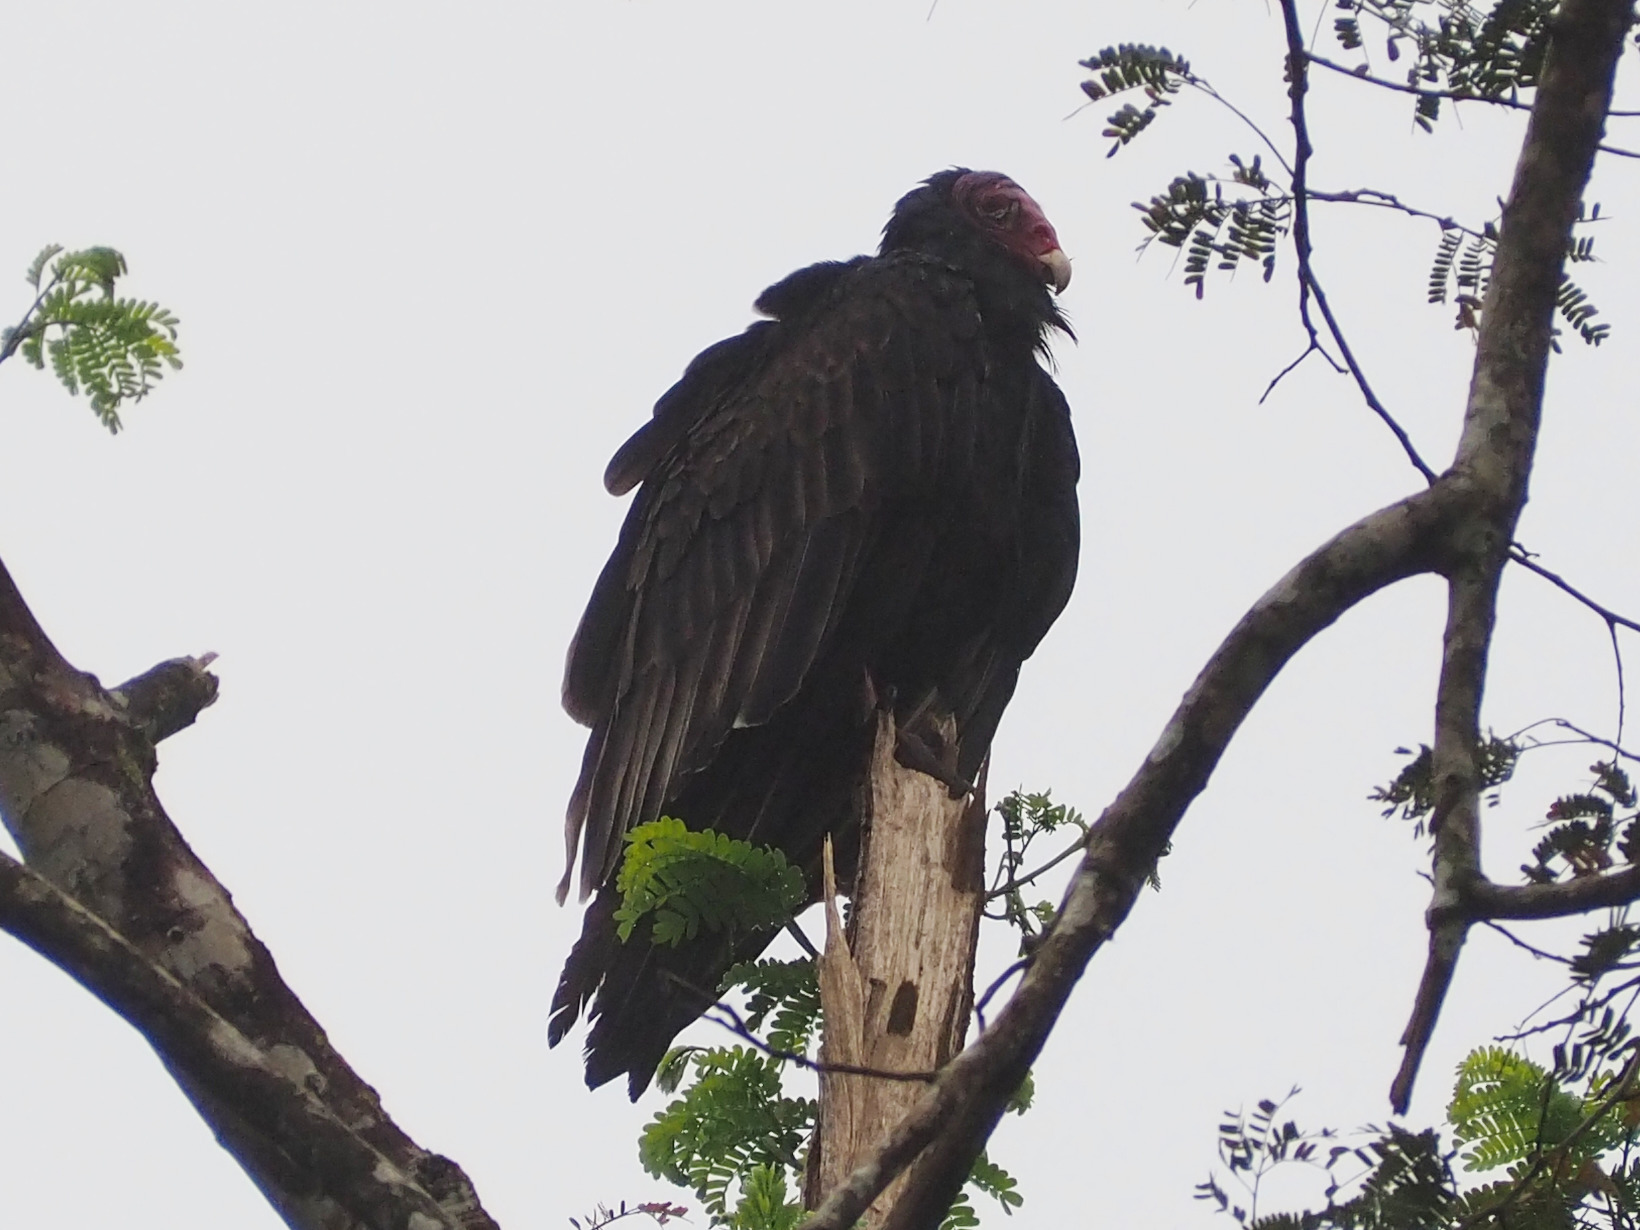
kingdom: Animalia
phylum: Chordata
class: Aves
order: Accipitriformes
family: Cathartidae
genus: Cathartes
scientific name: Cathartes aura
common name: Turkey vulture
